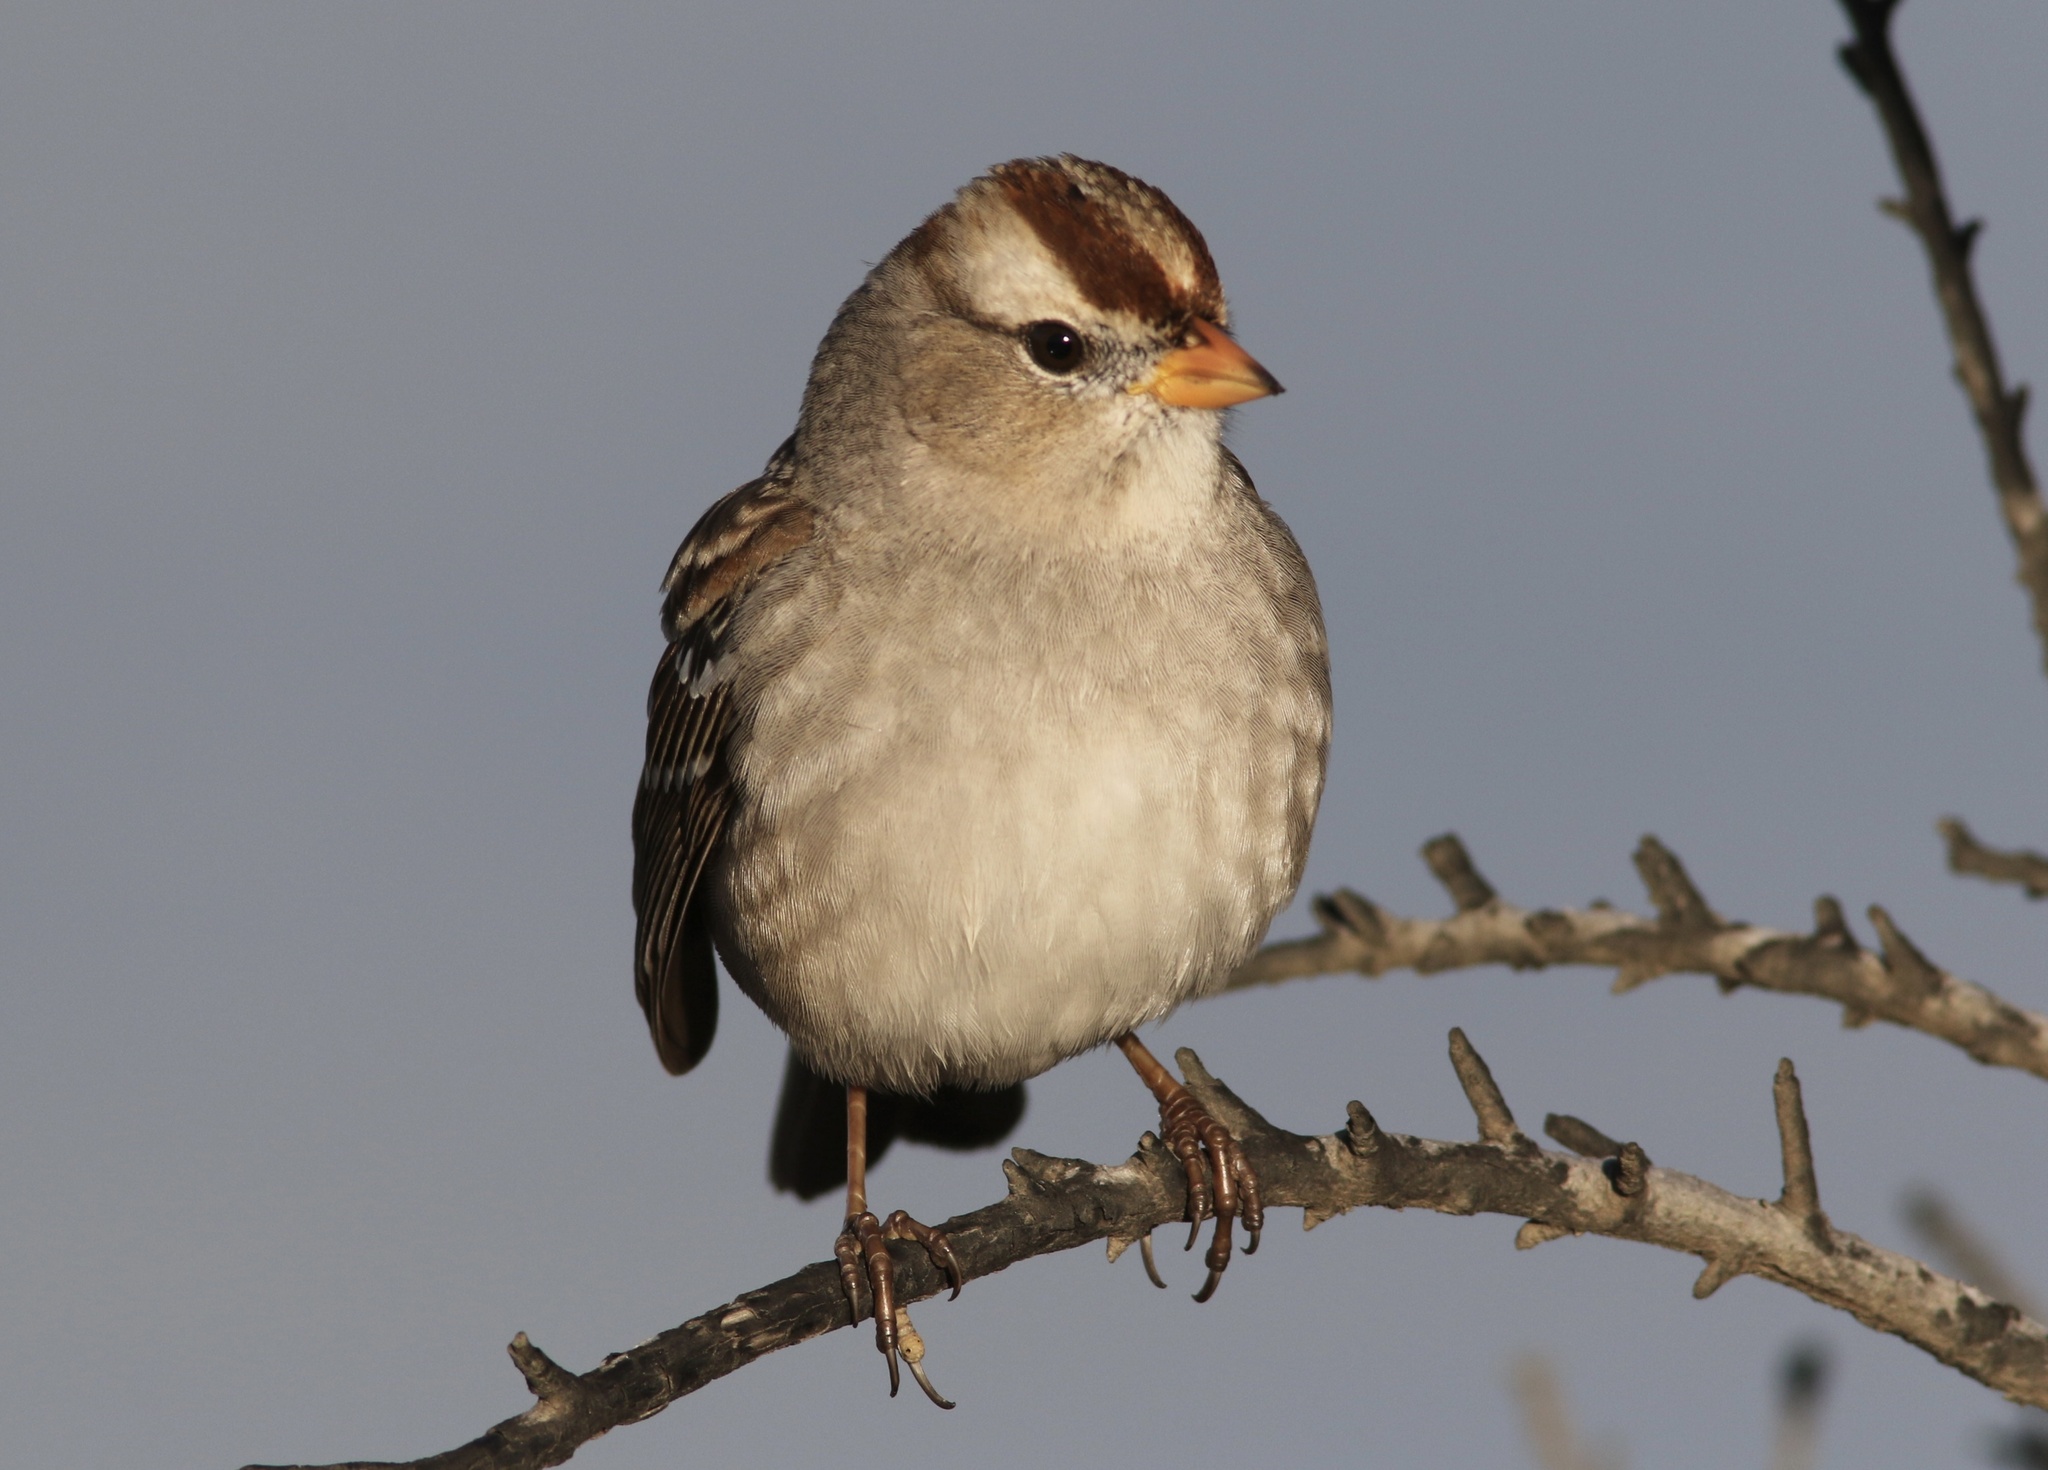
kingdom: Animalia
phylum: Chordata
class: Aves
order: Passeriformes
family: Passerellidae
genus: Zonotrichia
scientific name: Zonotrichia leucophrys
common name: White-crowned sparrow
